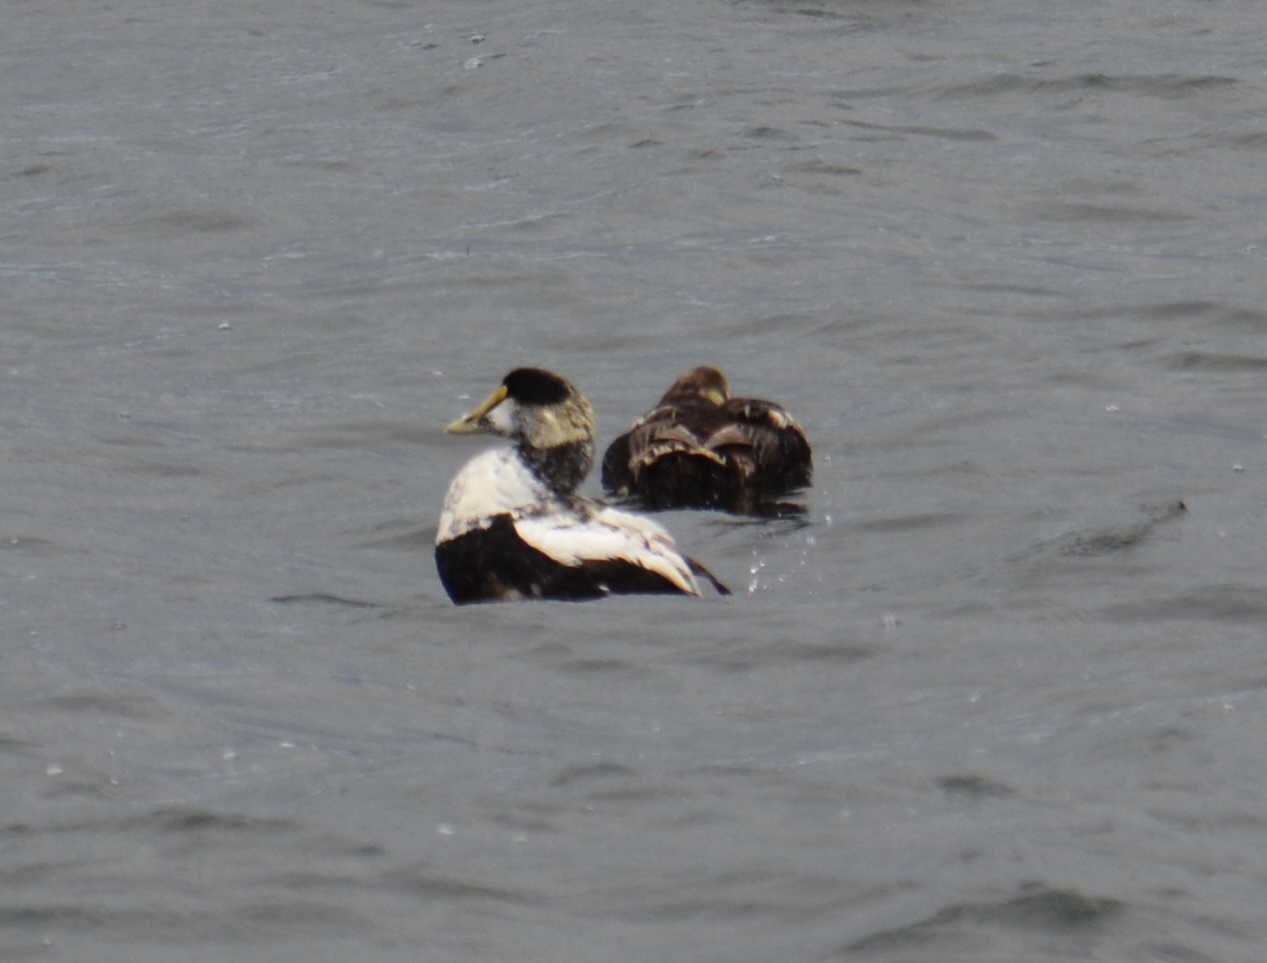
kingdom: Animalia
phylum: Chordata
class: Aves
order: Anseriformes
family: Anatidae
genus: Somateria
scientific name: Somateria mollissima
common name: Common eider
